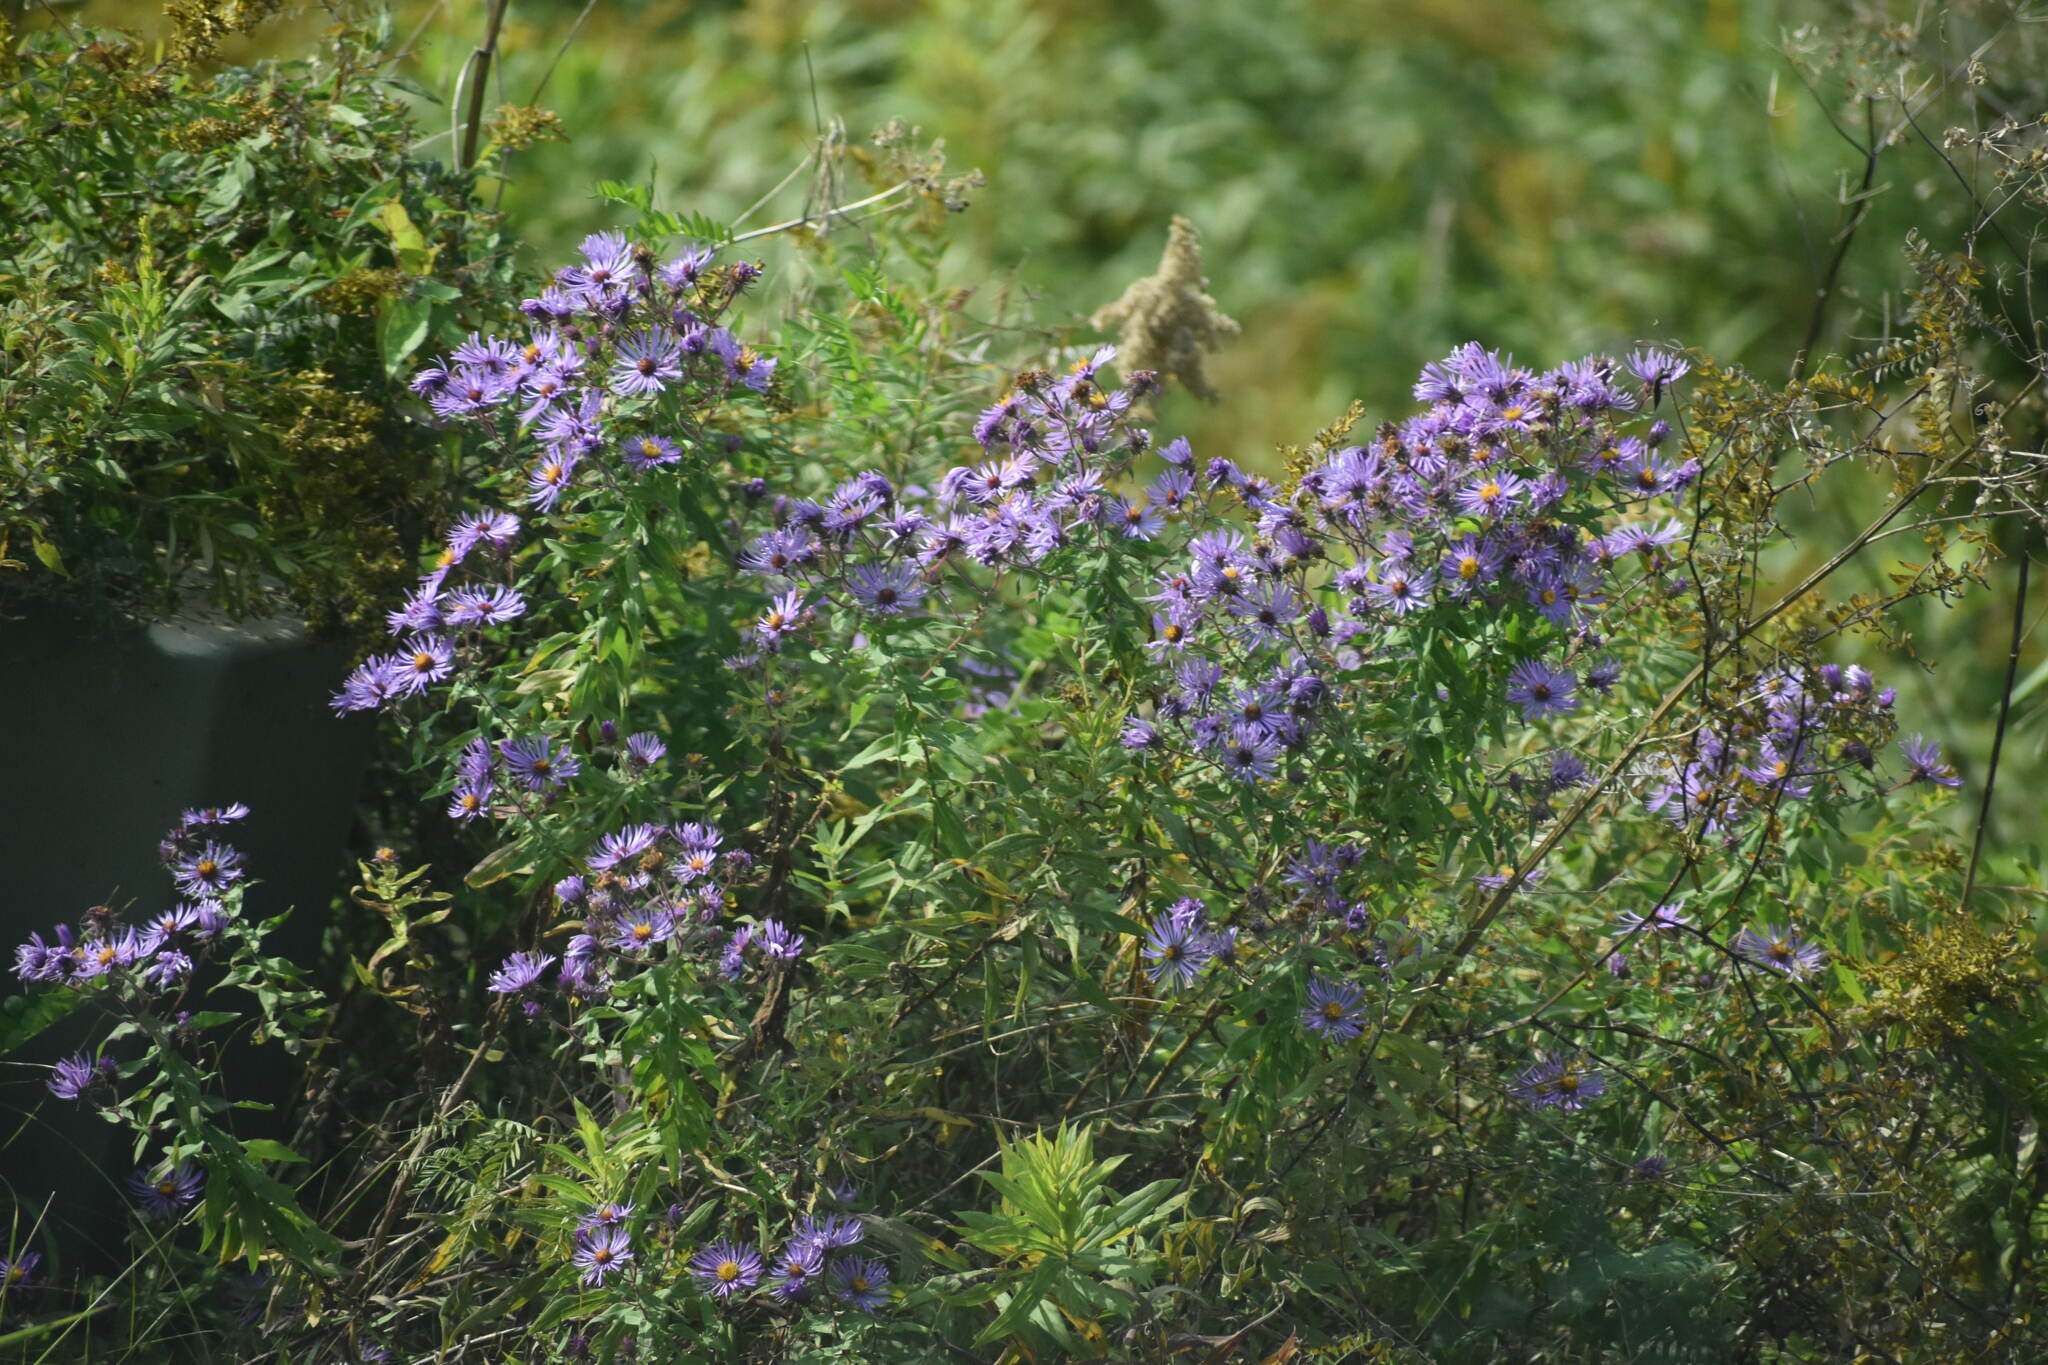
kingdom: Plantae
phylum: Tracheophyta
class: Magnoliopsida
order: Asterales
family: Asteraceae
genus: Symphyotrichum
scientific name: Symphyotrichum novae-angliae
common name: Michaelmas daisy
